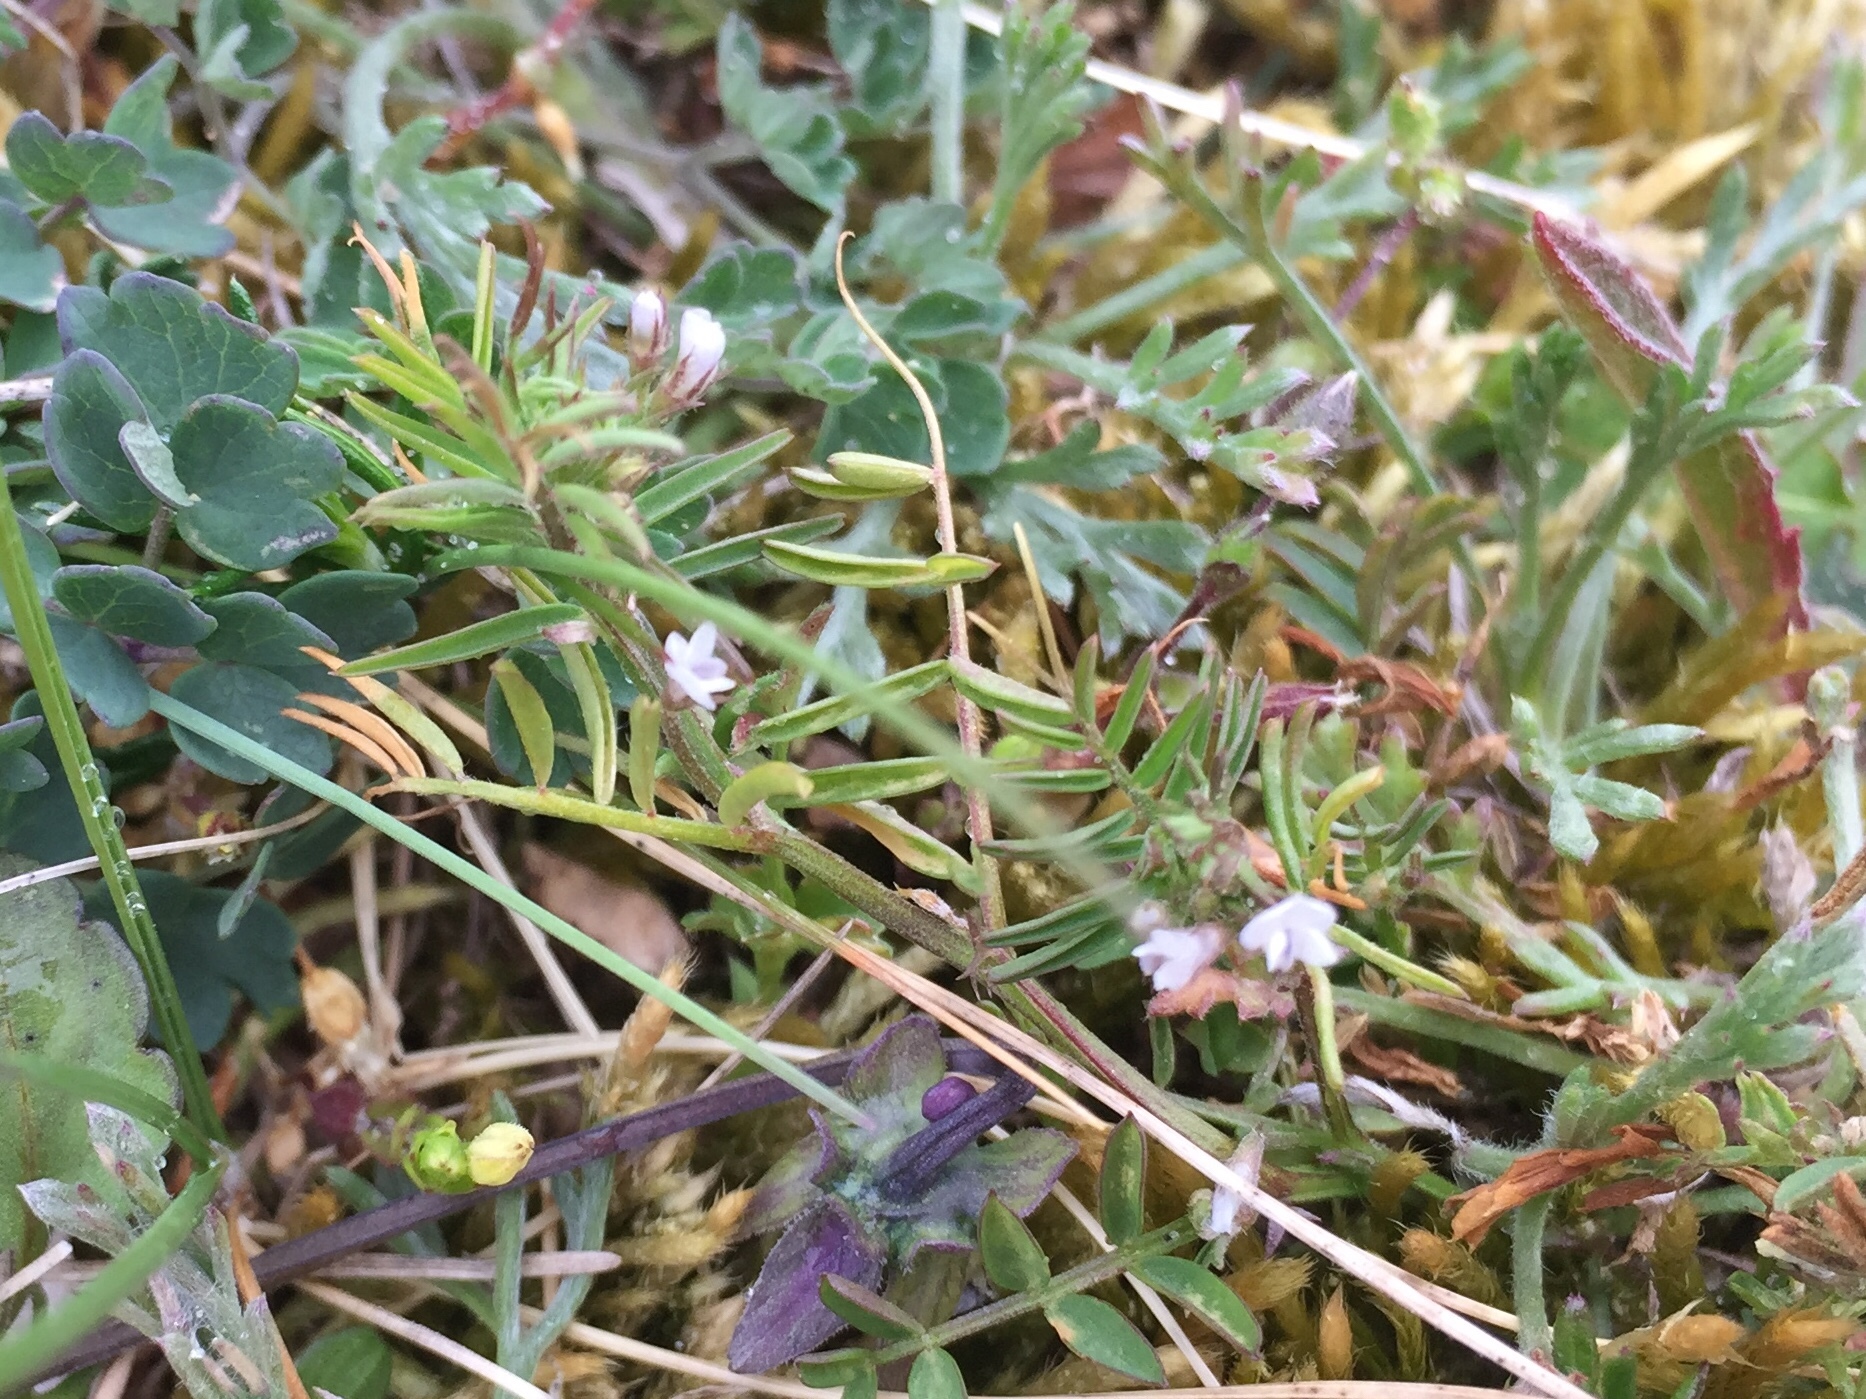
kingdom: Plantae
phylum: Tracheophyta
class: Magnoliopsida
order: Fabales
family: Fabaceae
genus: Vicia
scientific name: Vicia hirsuta
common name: Tiny vetch
